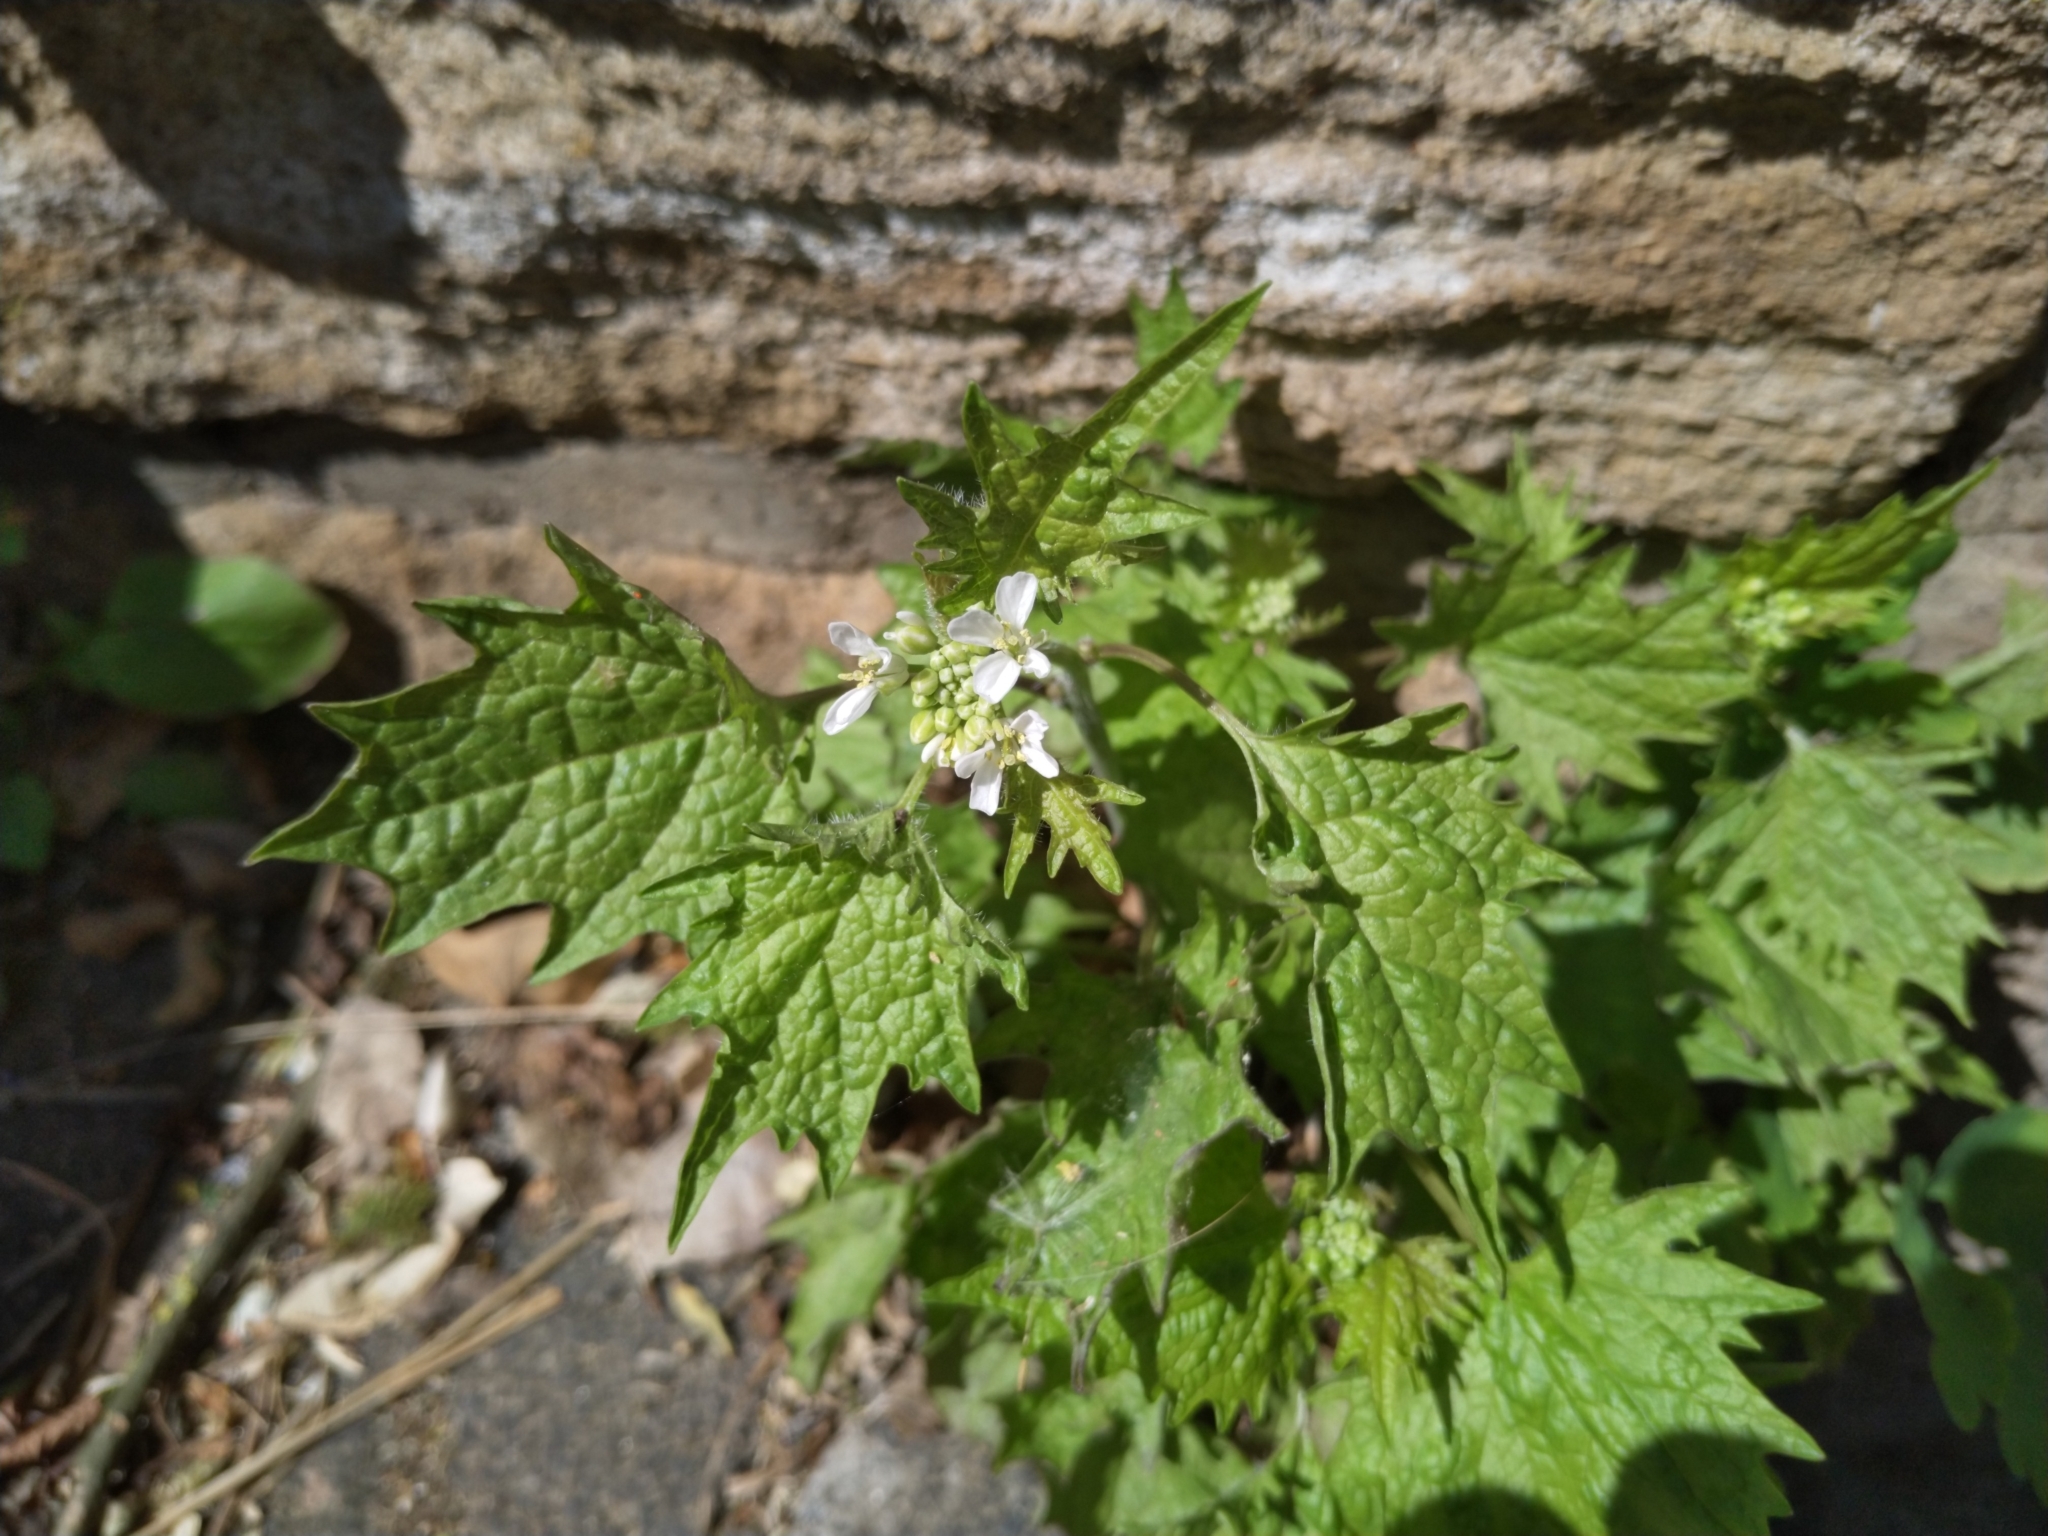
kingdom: Plantae
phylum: Tracheophyta
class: Magnoliopsida
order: Brassicales
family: Brassicaceae
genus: Alliaria
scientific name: Alliaria petiolata
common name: Garlic mustard
